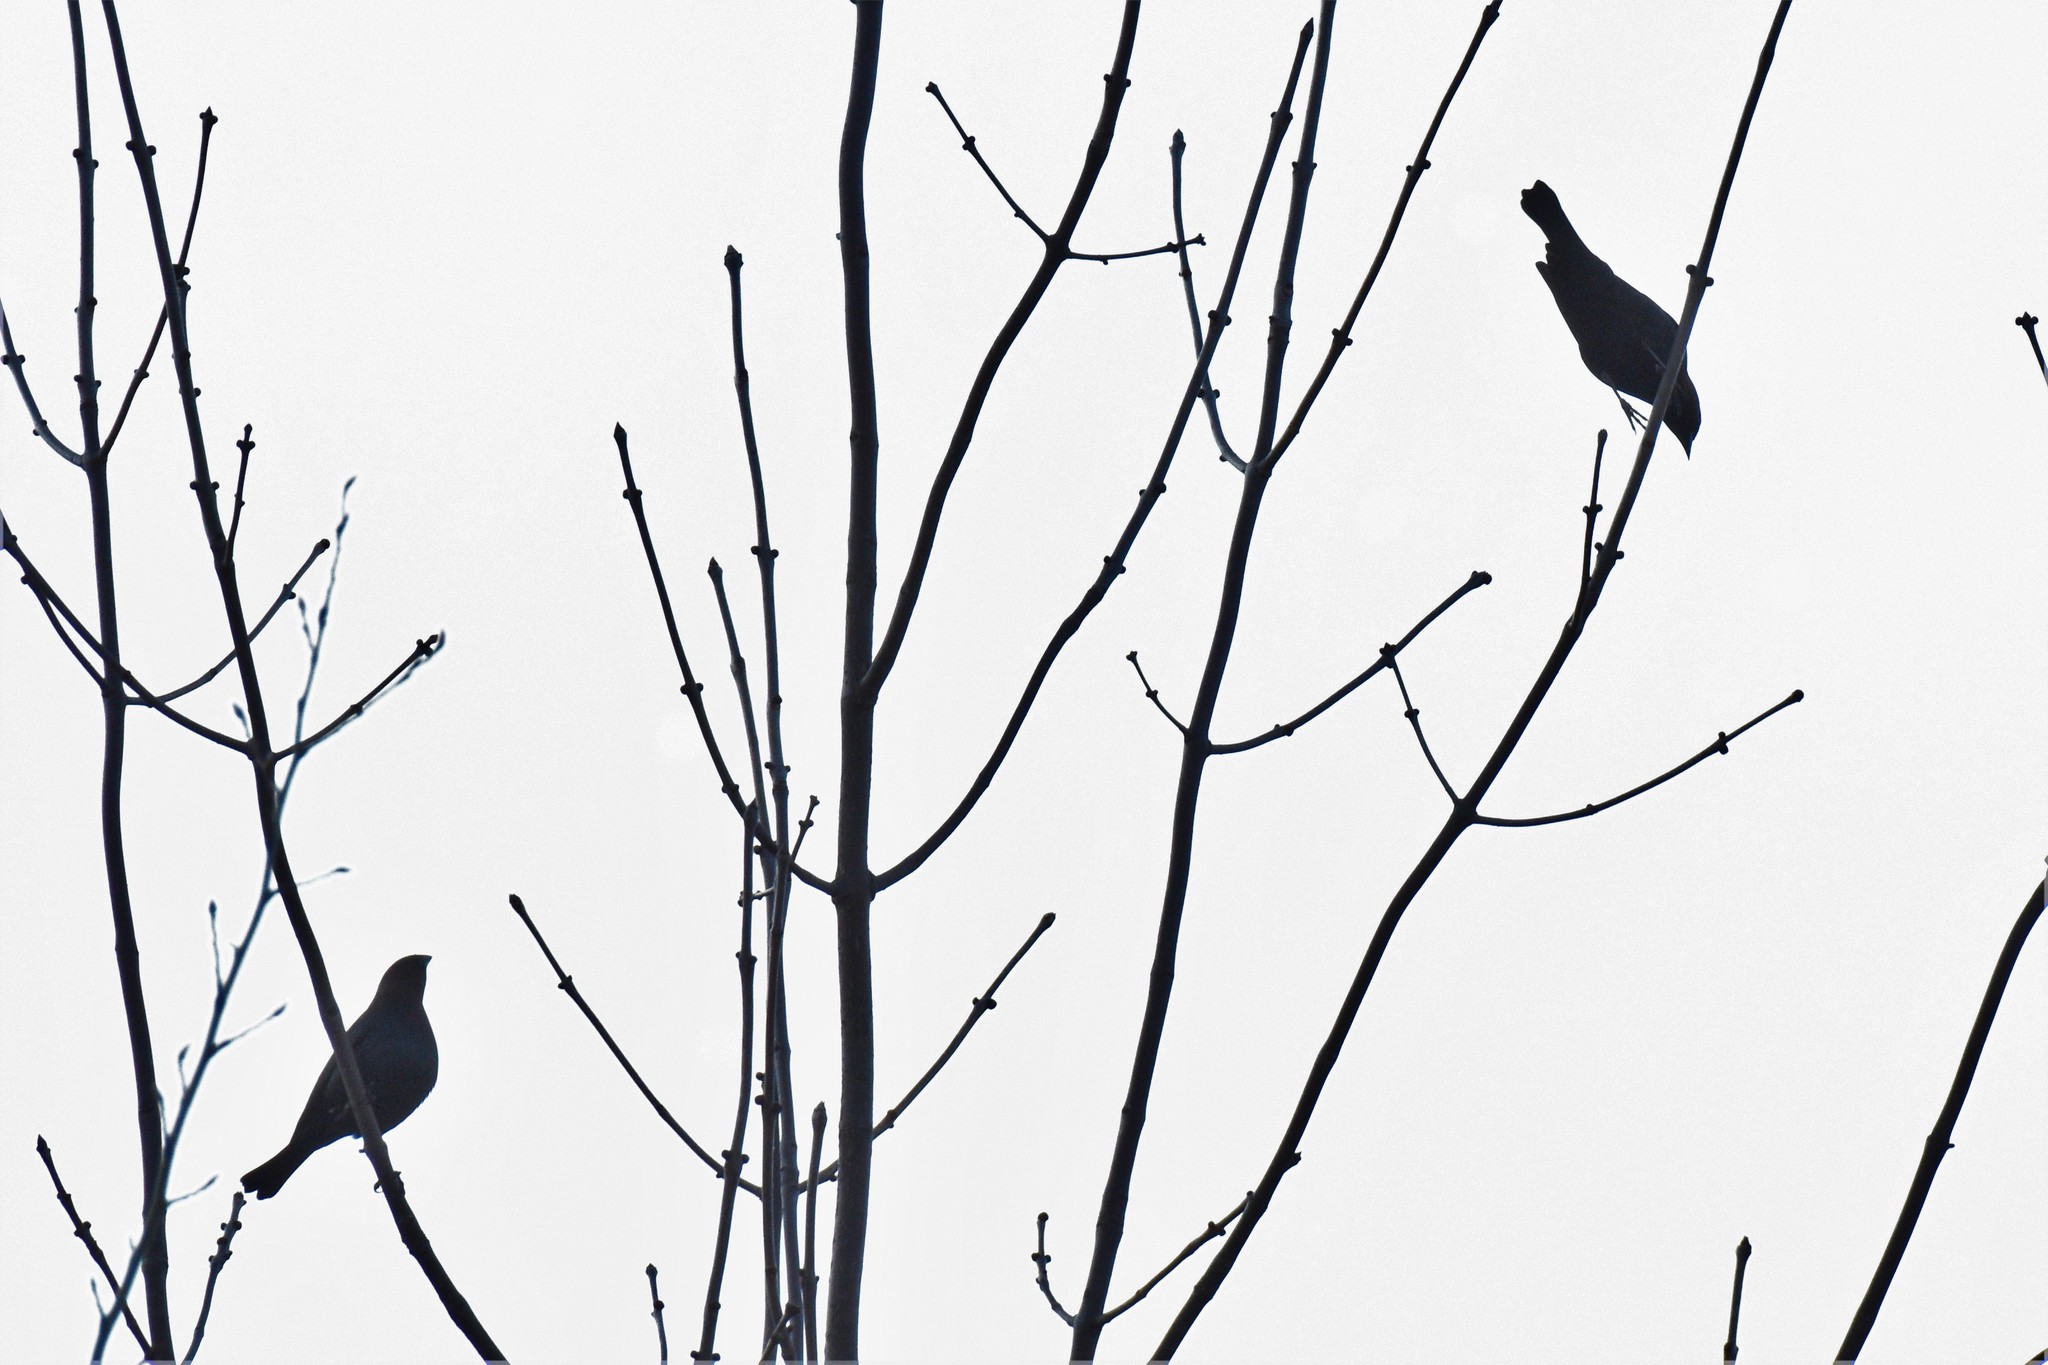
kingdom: Animalia
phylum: Chordata
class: Aves
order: Passeriformes
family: Icteridae
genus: Molothrus
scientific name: Molothrus ater
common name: Brown-headed cowbird
